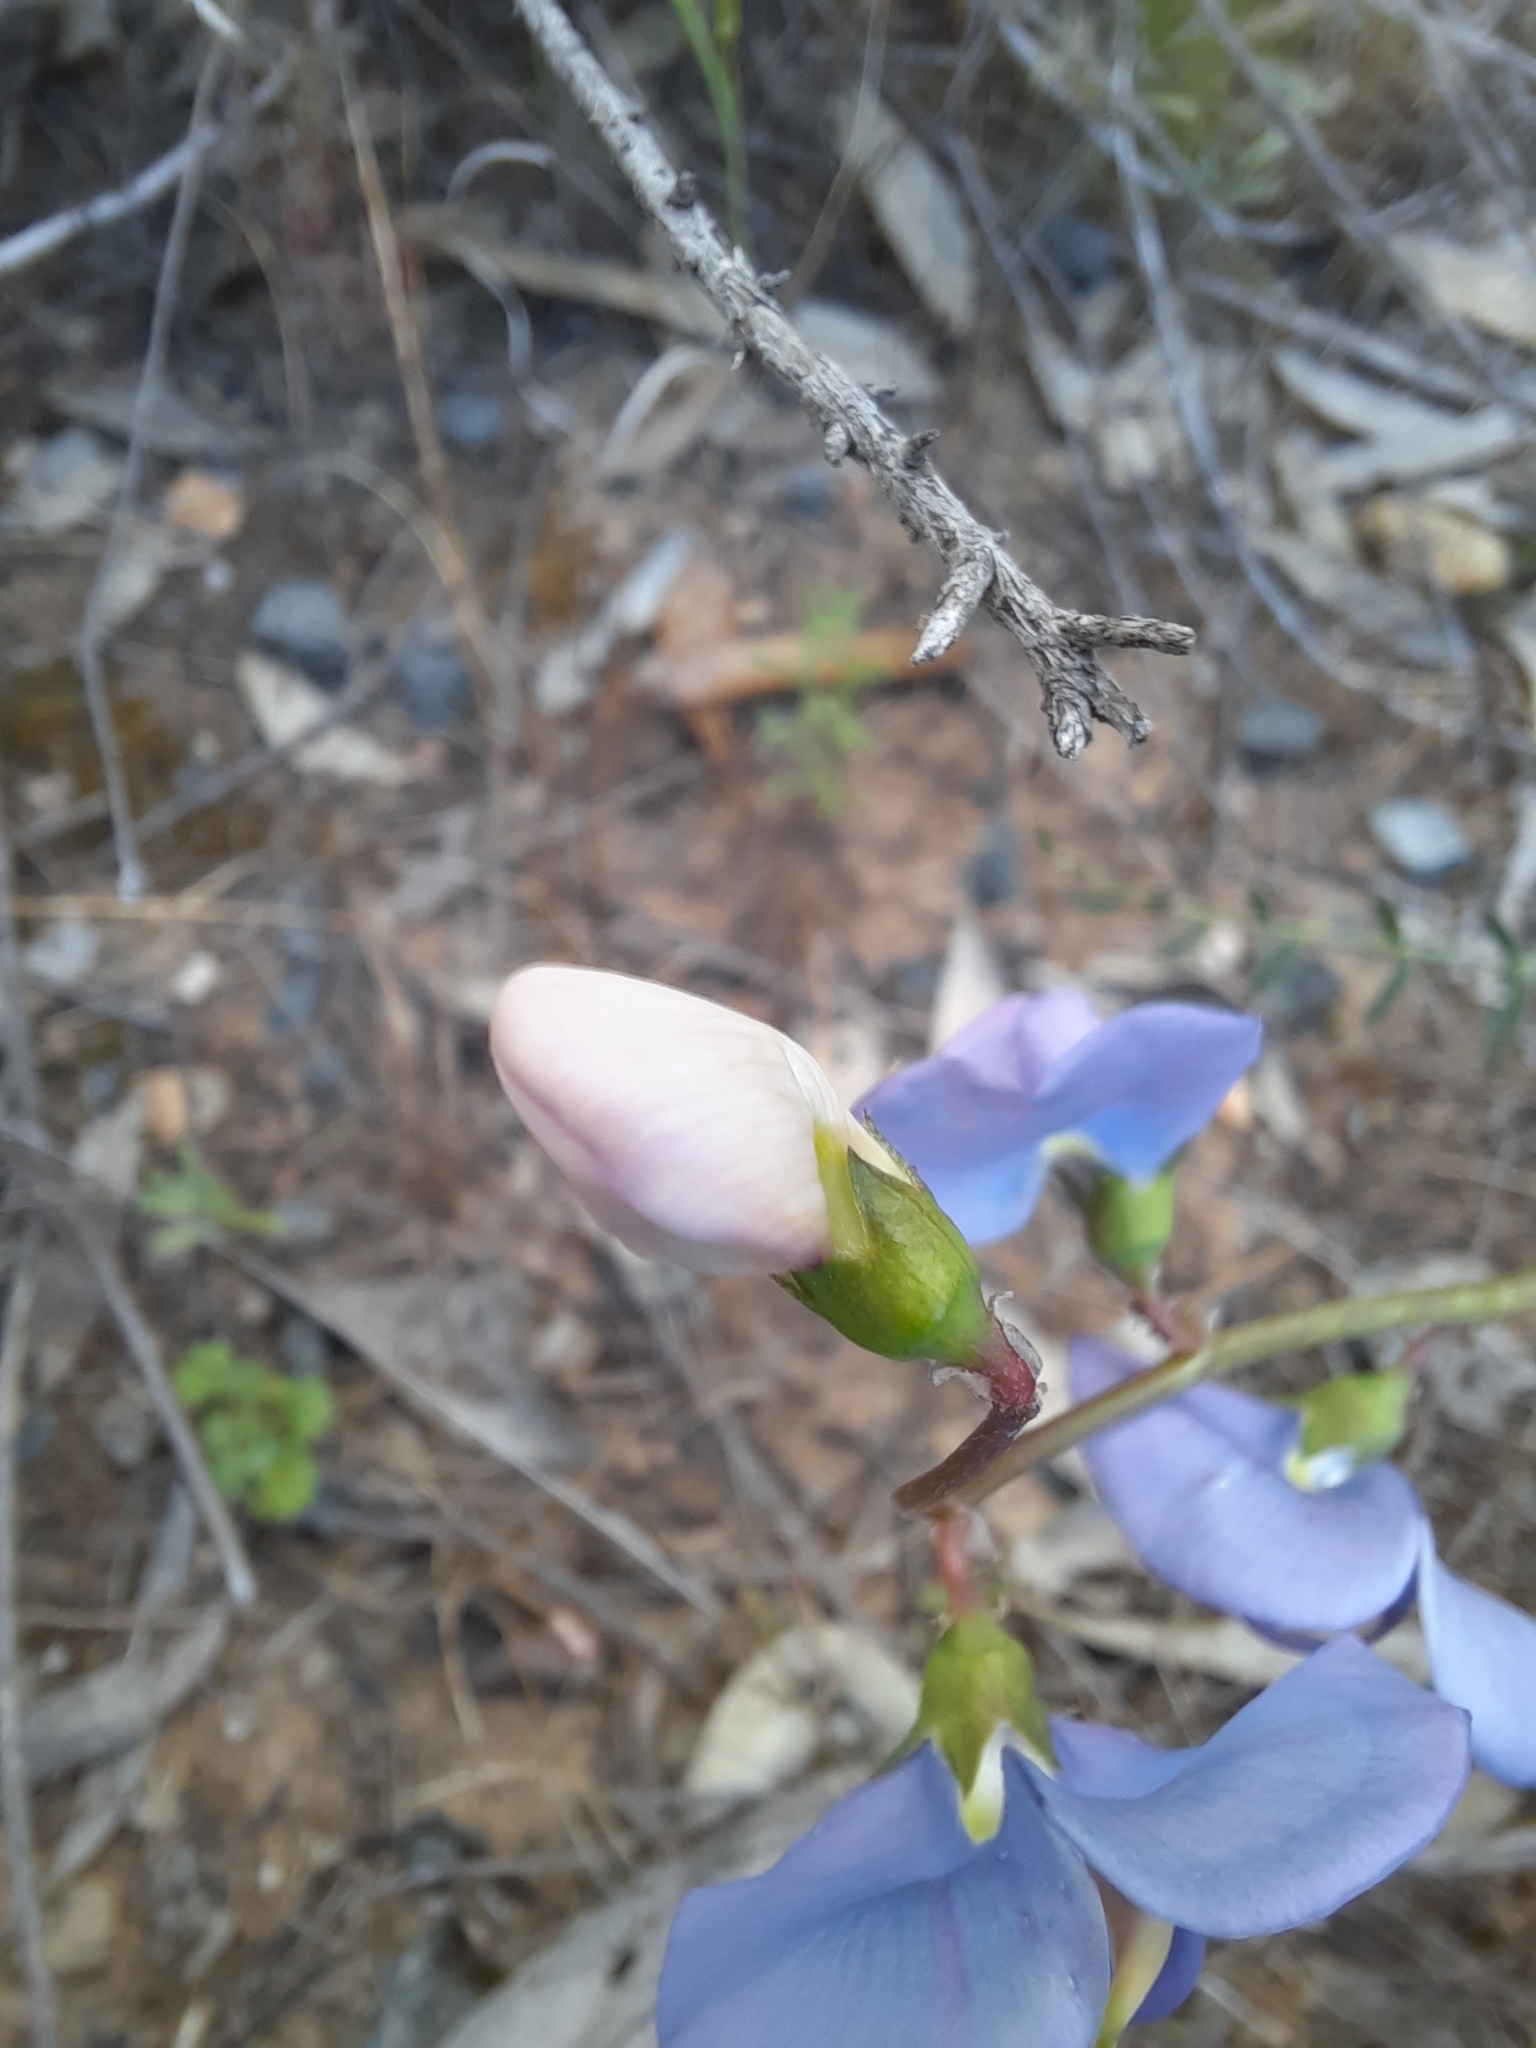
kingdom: Plantae
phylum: Tracheophyta
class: Magnoliopsida
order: Fabales
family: Fabaceae
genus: Swainsona
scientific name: Swainsona procumbens
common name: Broughton-pea
